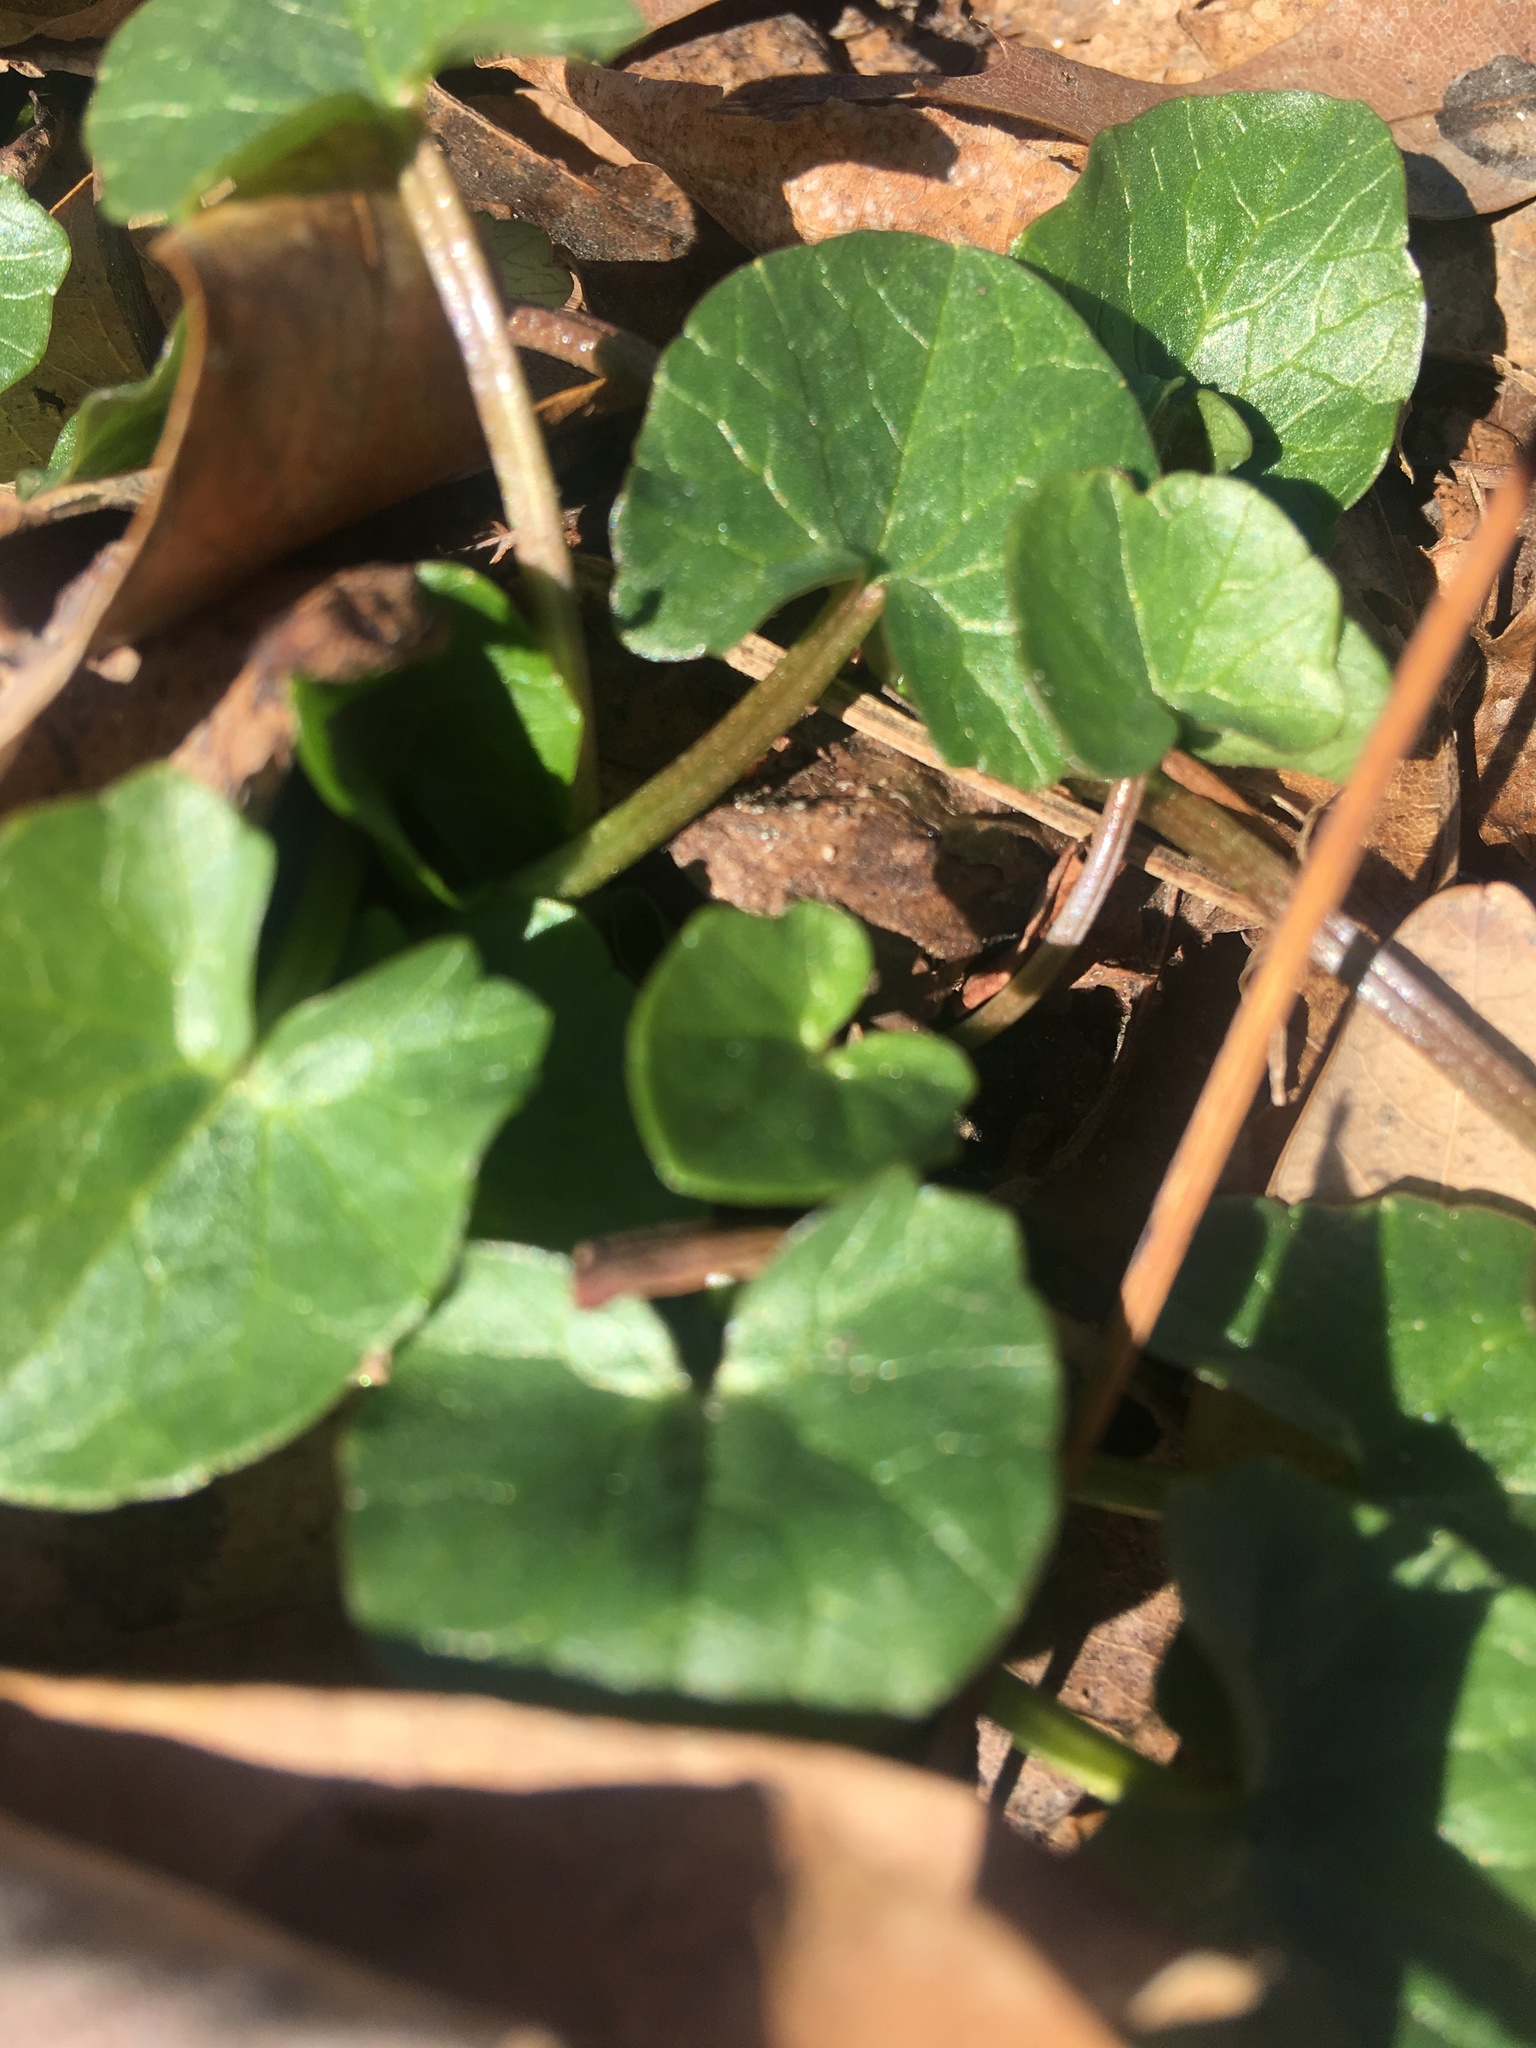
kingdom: Plantae
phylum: Tracheophyta
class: Magnoliopsida
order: Ranunculales
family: Ranunculaceae
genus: Ficaria
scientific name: Ficaria verna
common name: Lesser celandine
